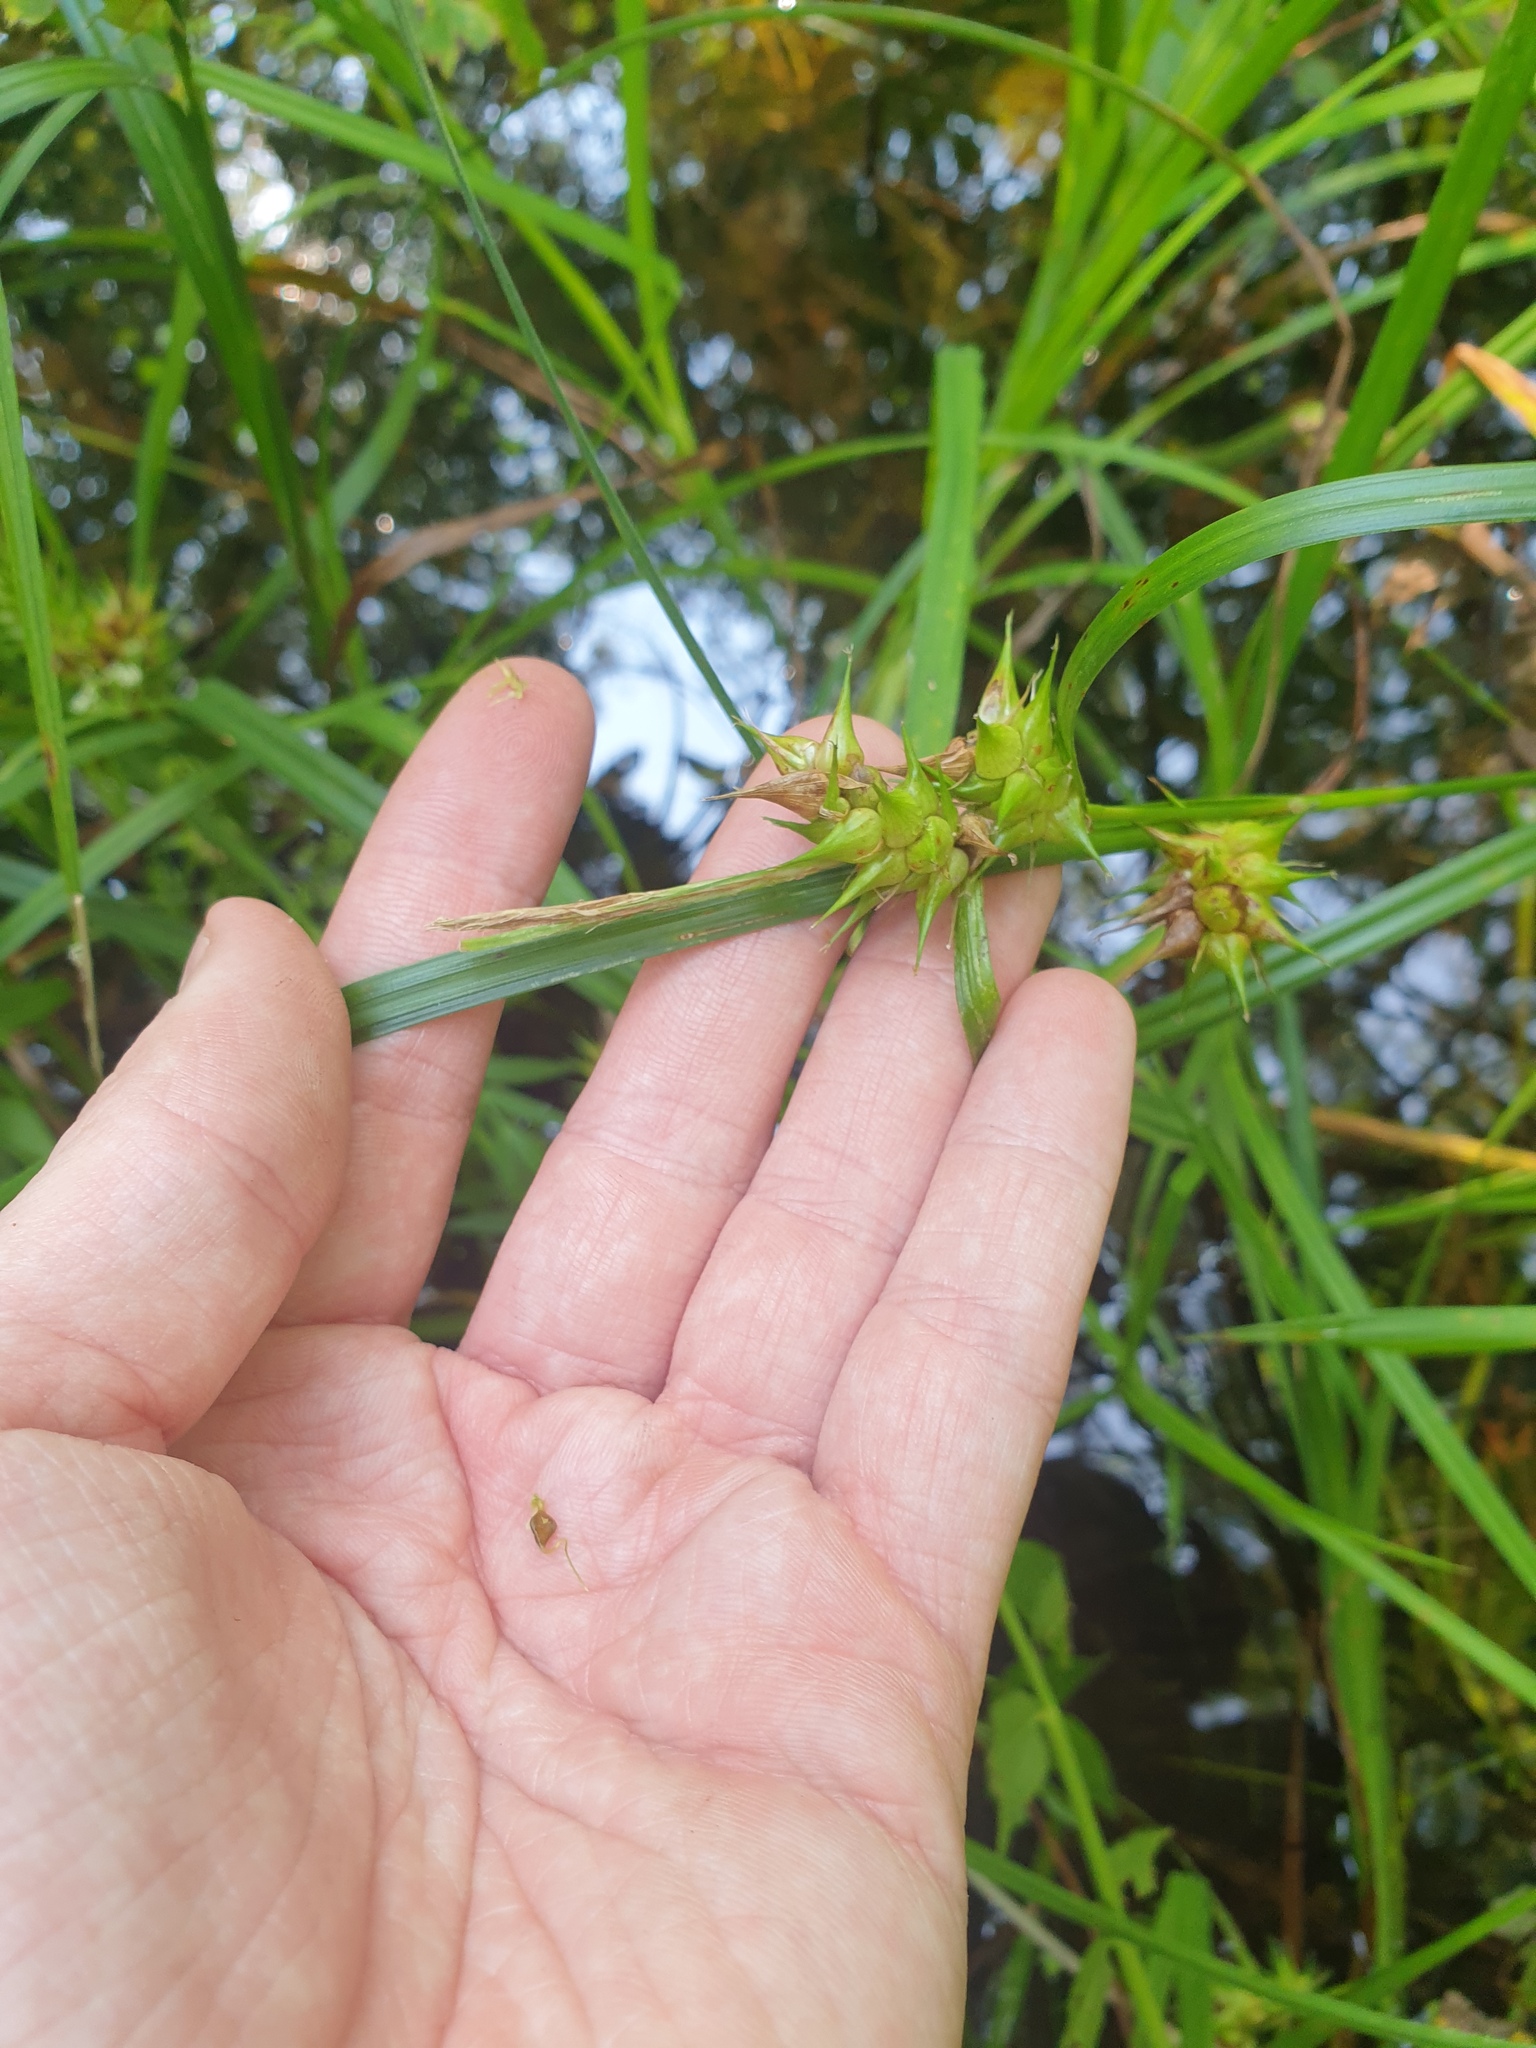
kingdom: Plantae
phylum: Tracheophyta
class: Liliopsida
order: Poales
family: Cyperaceae
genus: Carex
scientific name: Carex lupulina
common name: Hop sedge
